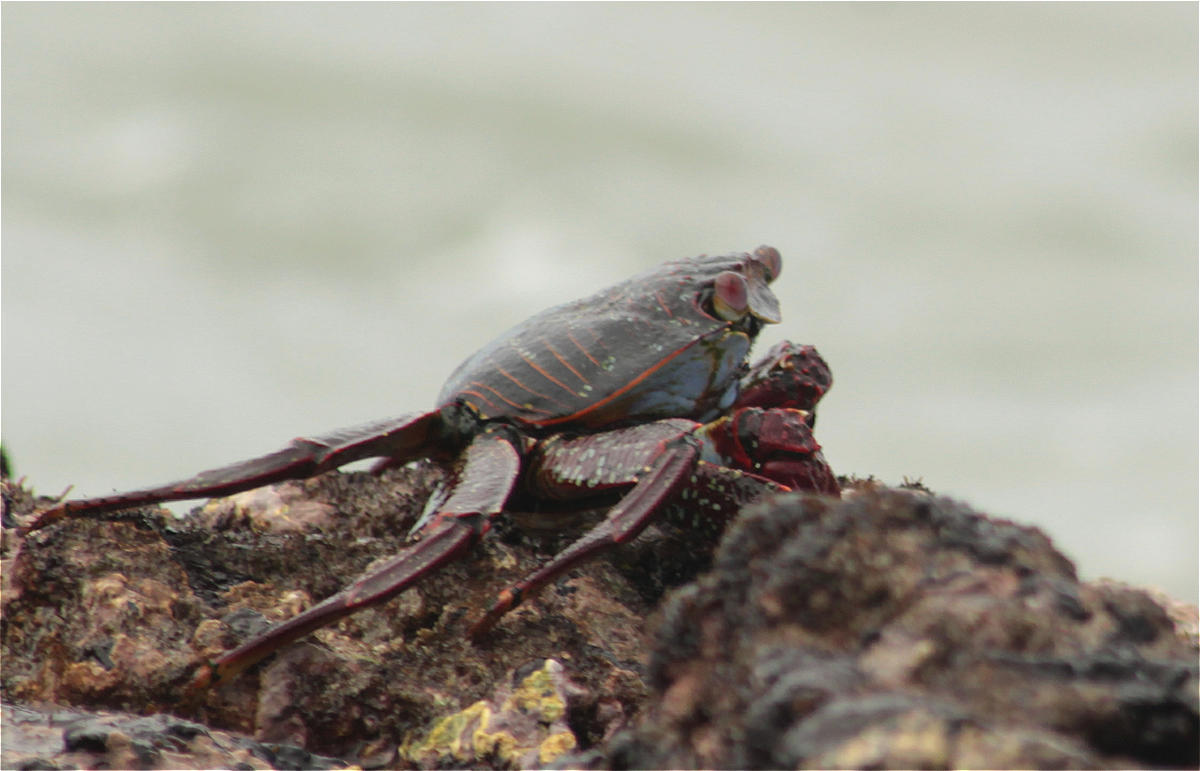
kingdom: Animalia
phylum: Arthropoda
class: Malacostraca
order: Decapoda
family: Grapsidae
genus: Grapsus
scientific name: Grapsus grapsus
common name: Sally lightfoot
